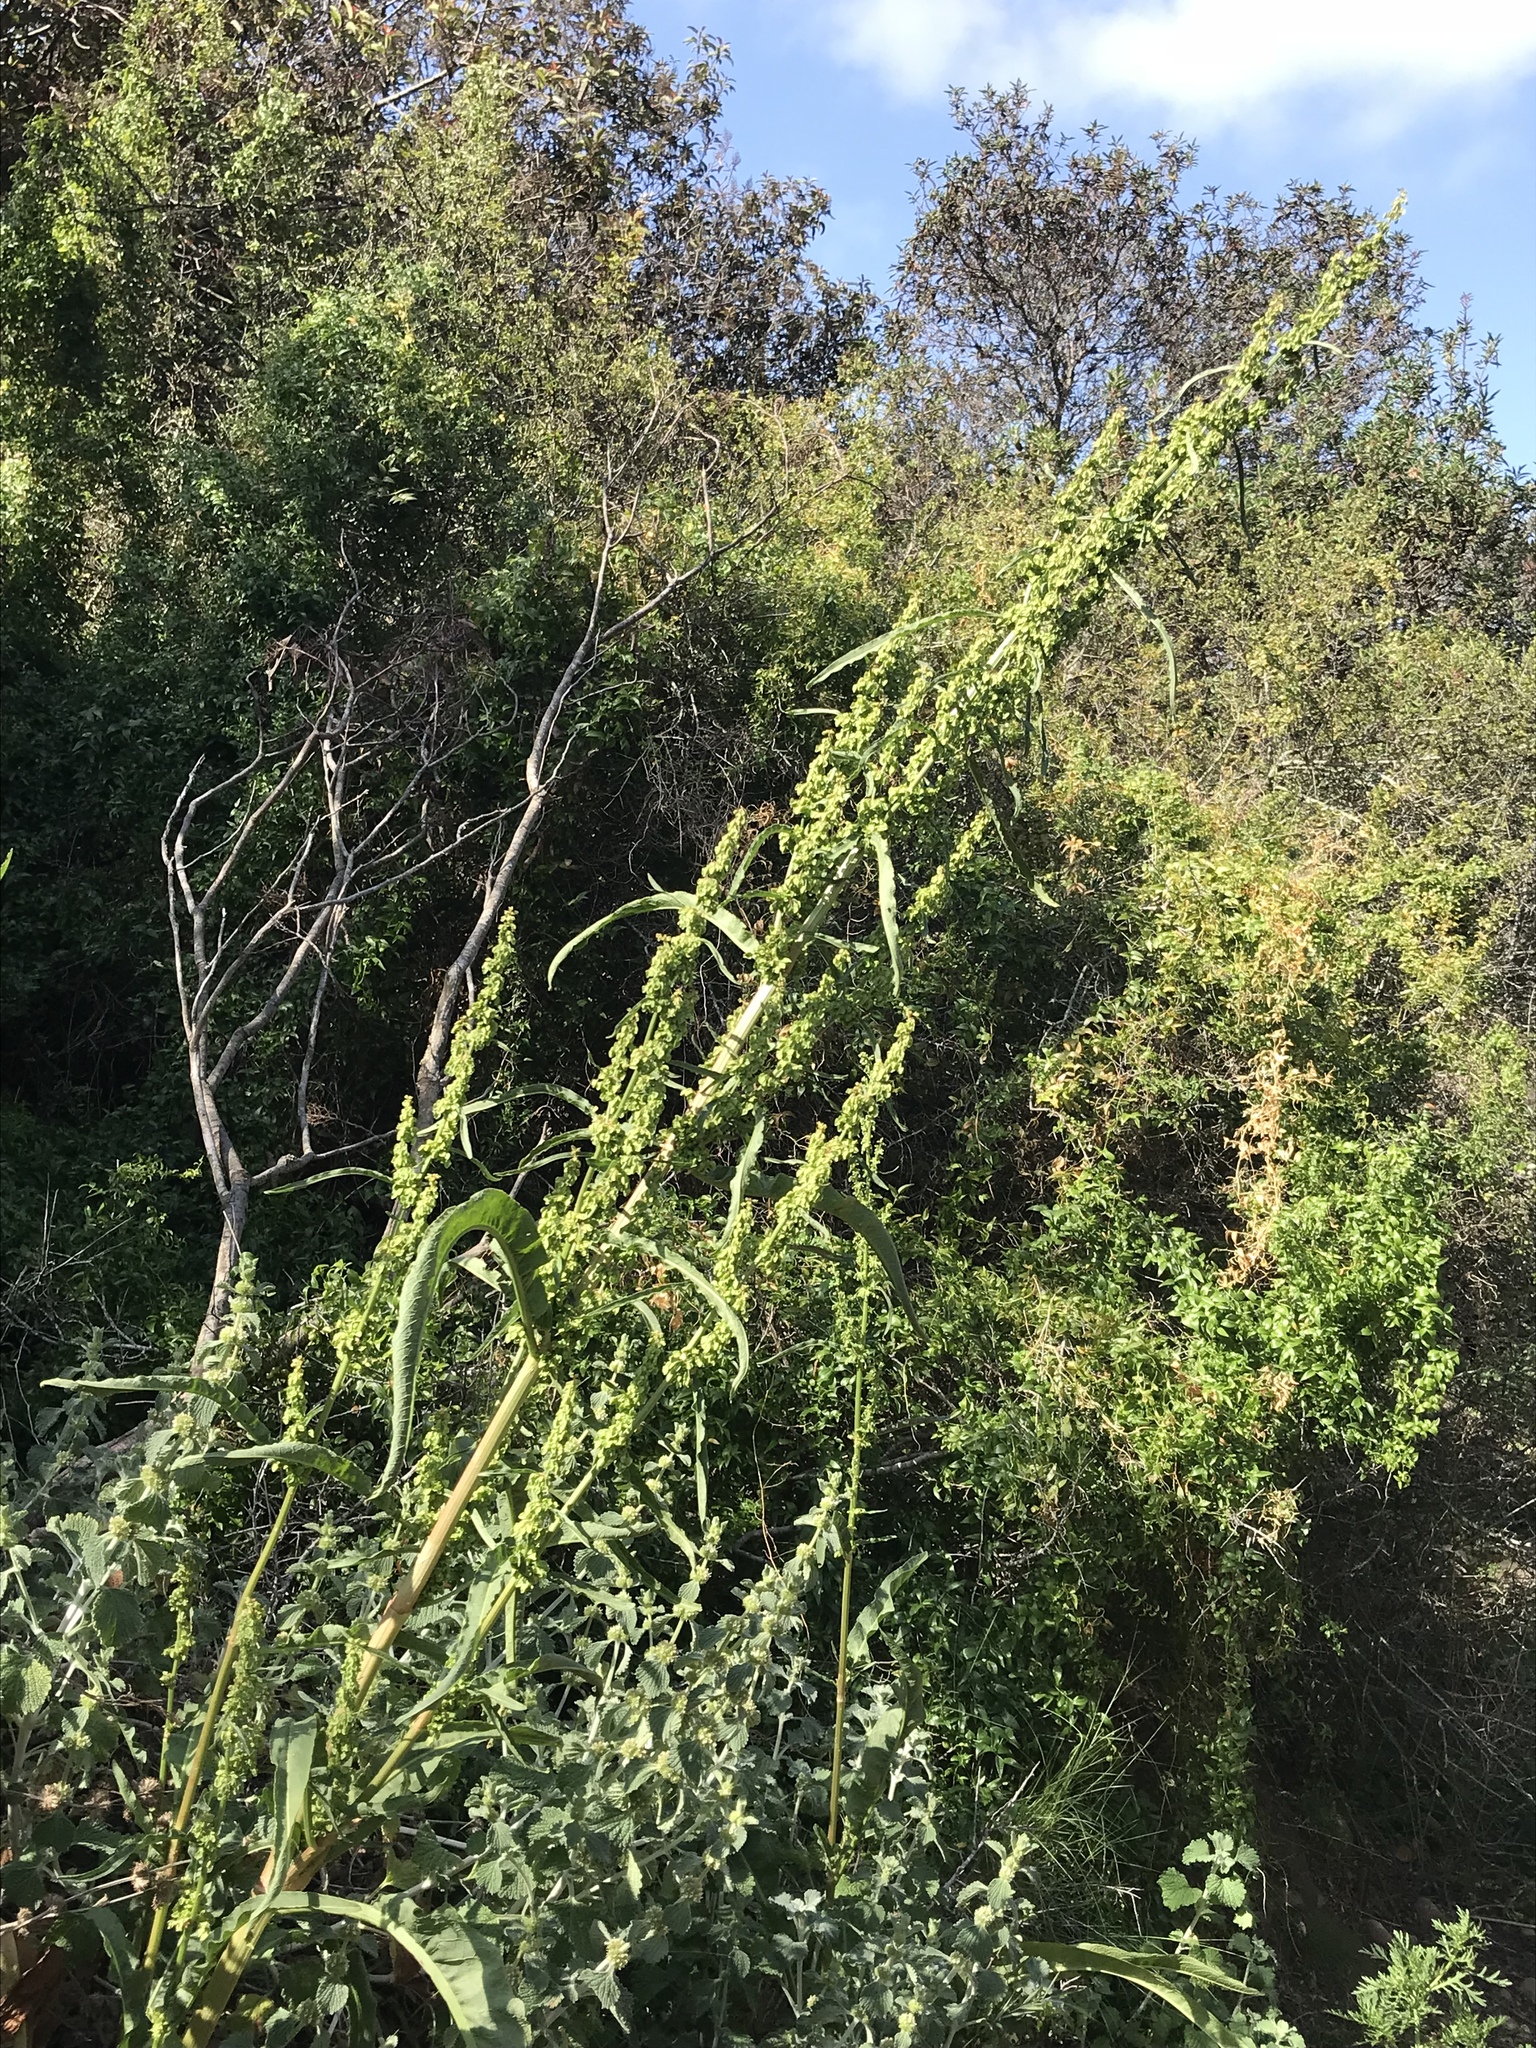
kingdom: Plantae
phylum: Tracheophyta
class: Magnoliopsida
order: Caryophyllales
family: Polygonaceae
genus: Rumex
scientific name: Rumex crispus
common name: Curled dock
